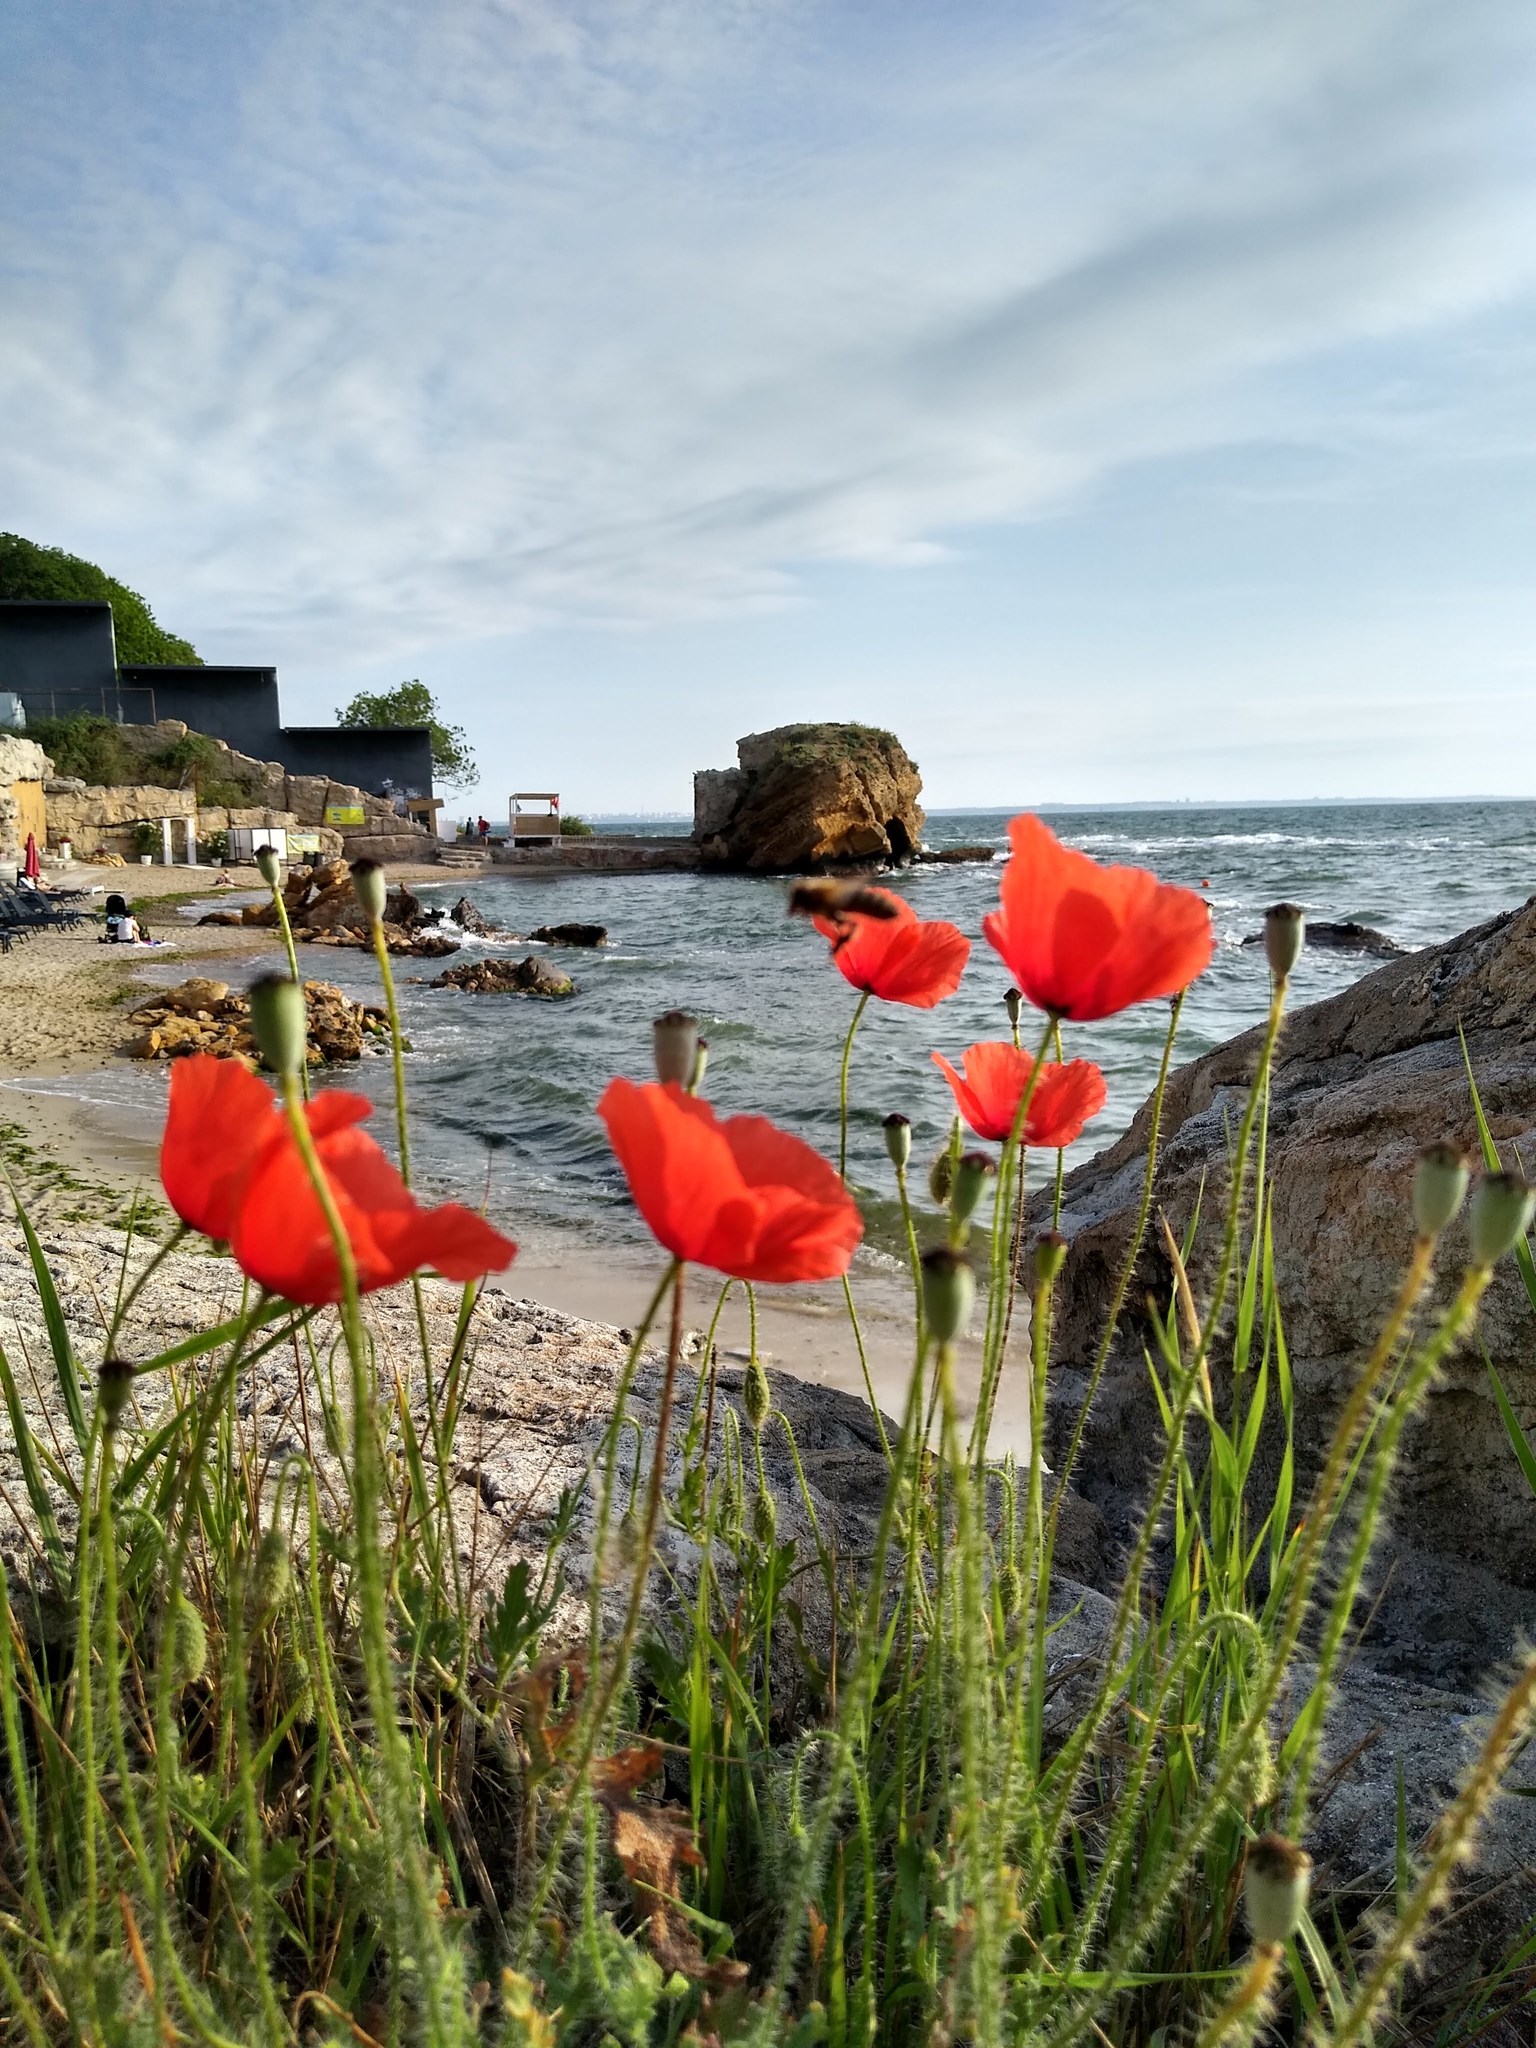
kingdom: Plantae
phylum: Tracheophyta
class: Magnoliopsida
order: Ranunculales
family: Papaveraceae
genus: Papaver
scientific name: Papaver rhoeas
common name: Corn poppy
